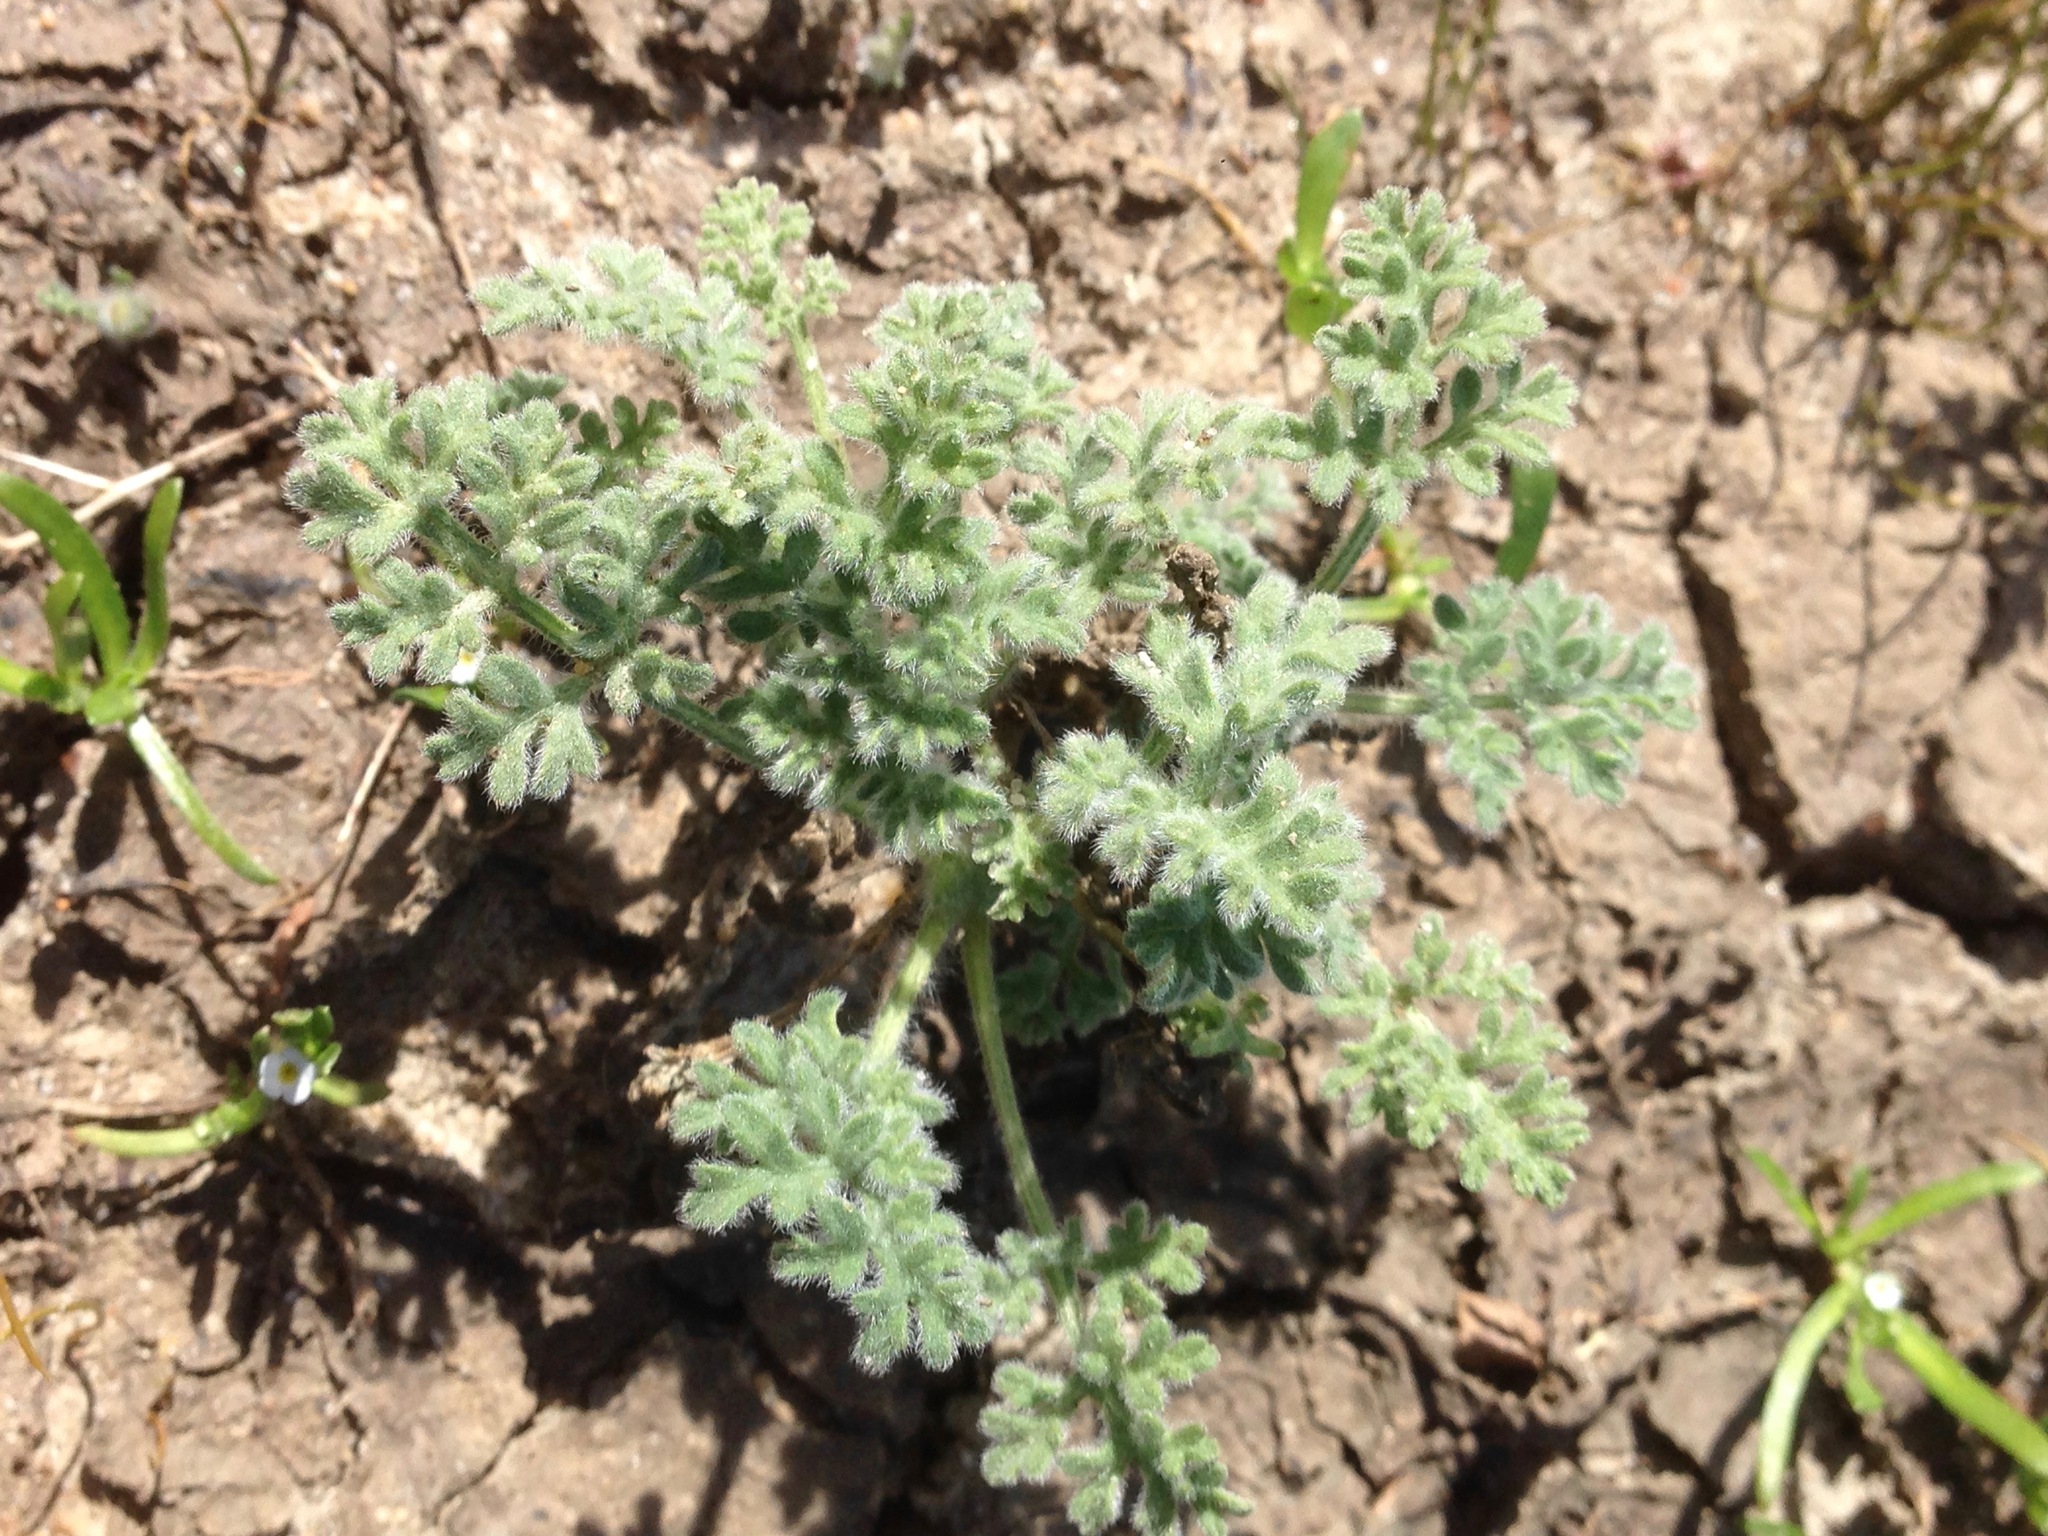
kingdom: Plantae
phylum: Tracheophyta
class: Magnoliopsida
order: Asterales
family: Asteraceae
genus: Ambrosia
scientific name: Ambrosia pumila
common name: San diego ambrosia
